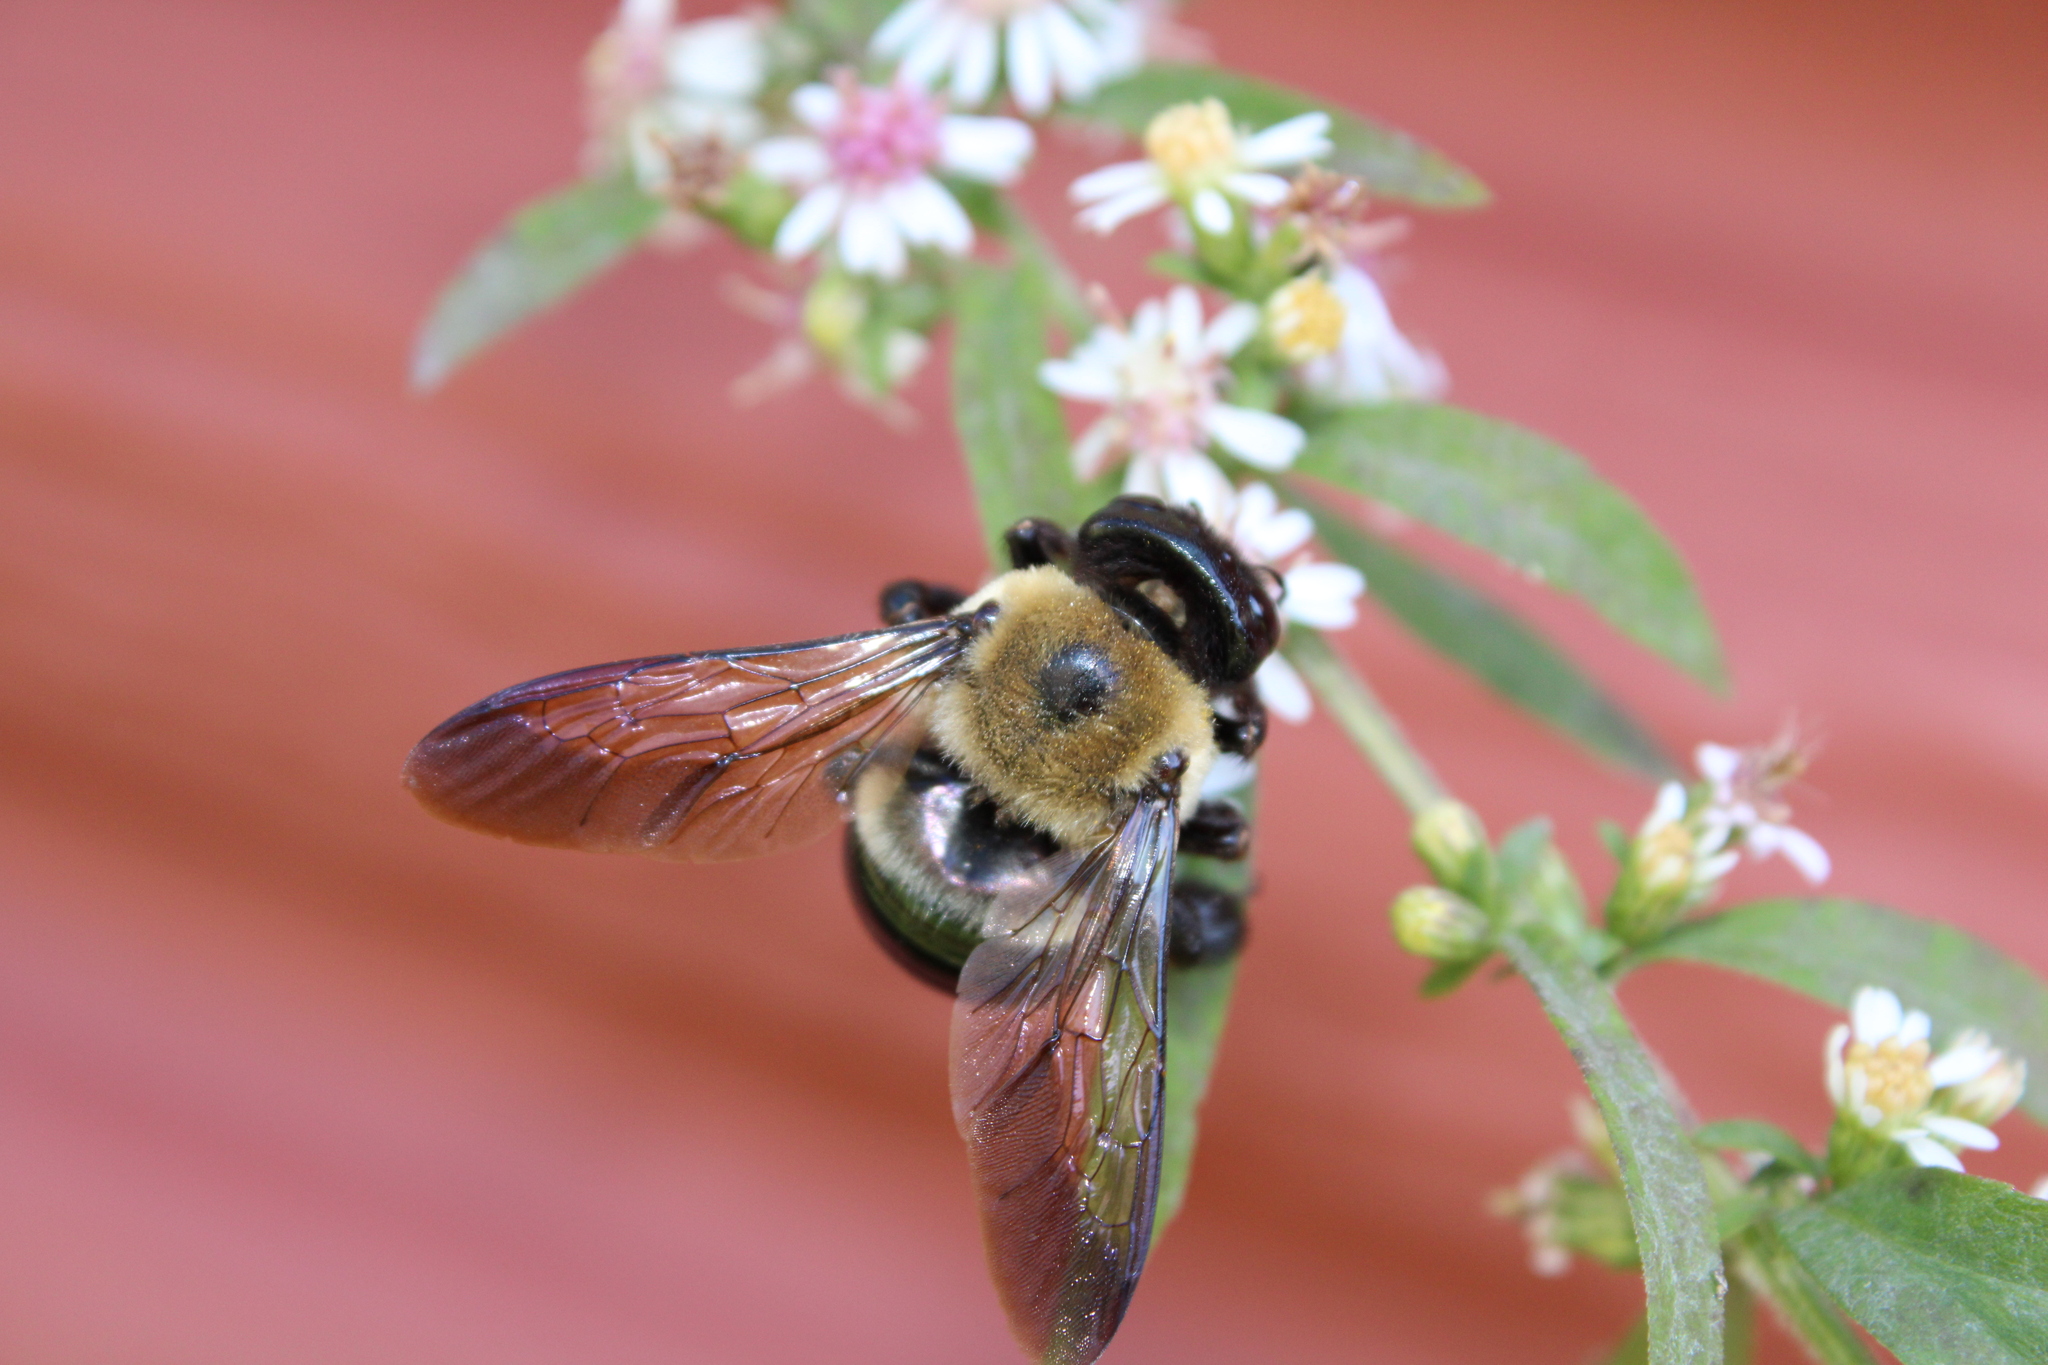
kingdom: Animalia
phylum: Arthropoda
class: Insecta
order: Hymenoptera
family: Apidae
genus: Xylocopa
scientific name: Xylocopa virginica
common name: Carpenter bee
